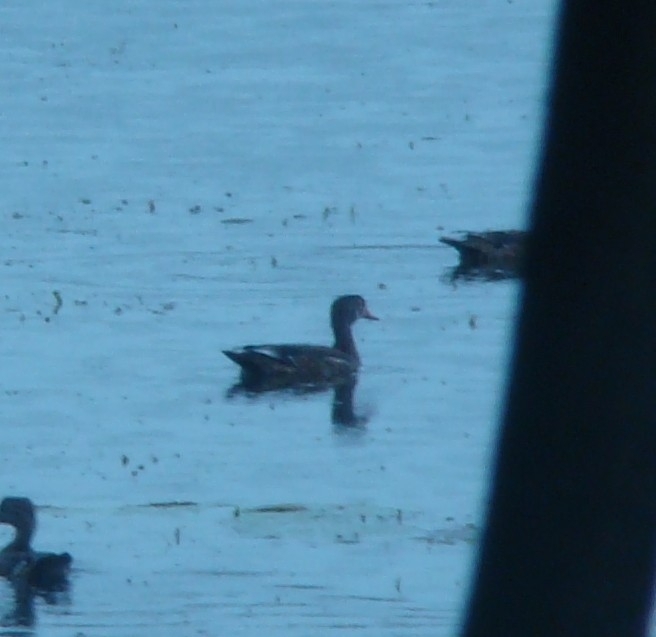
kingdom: Animalia
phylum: Chordata
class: Aves
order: Anseriformes
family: Anatidae
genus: Aix
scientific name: Aix sponsa
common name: Wood duck
